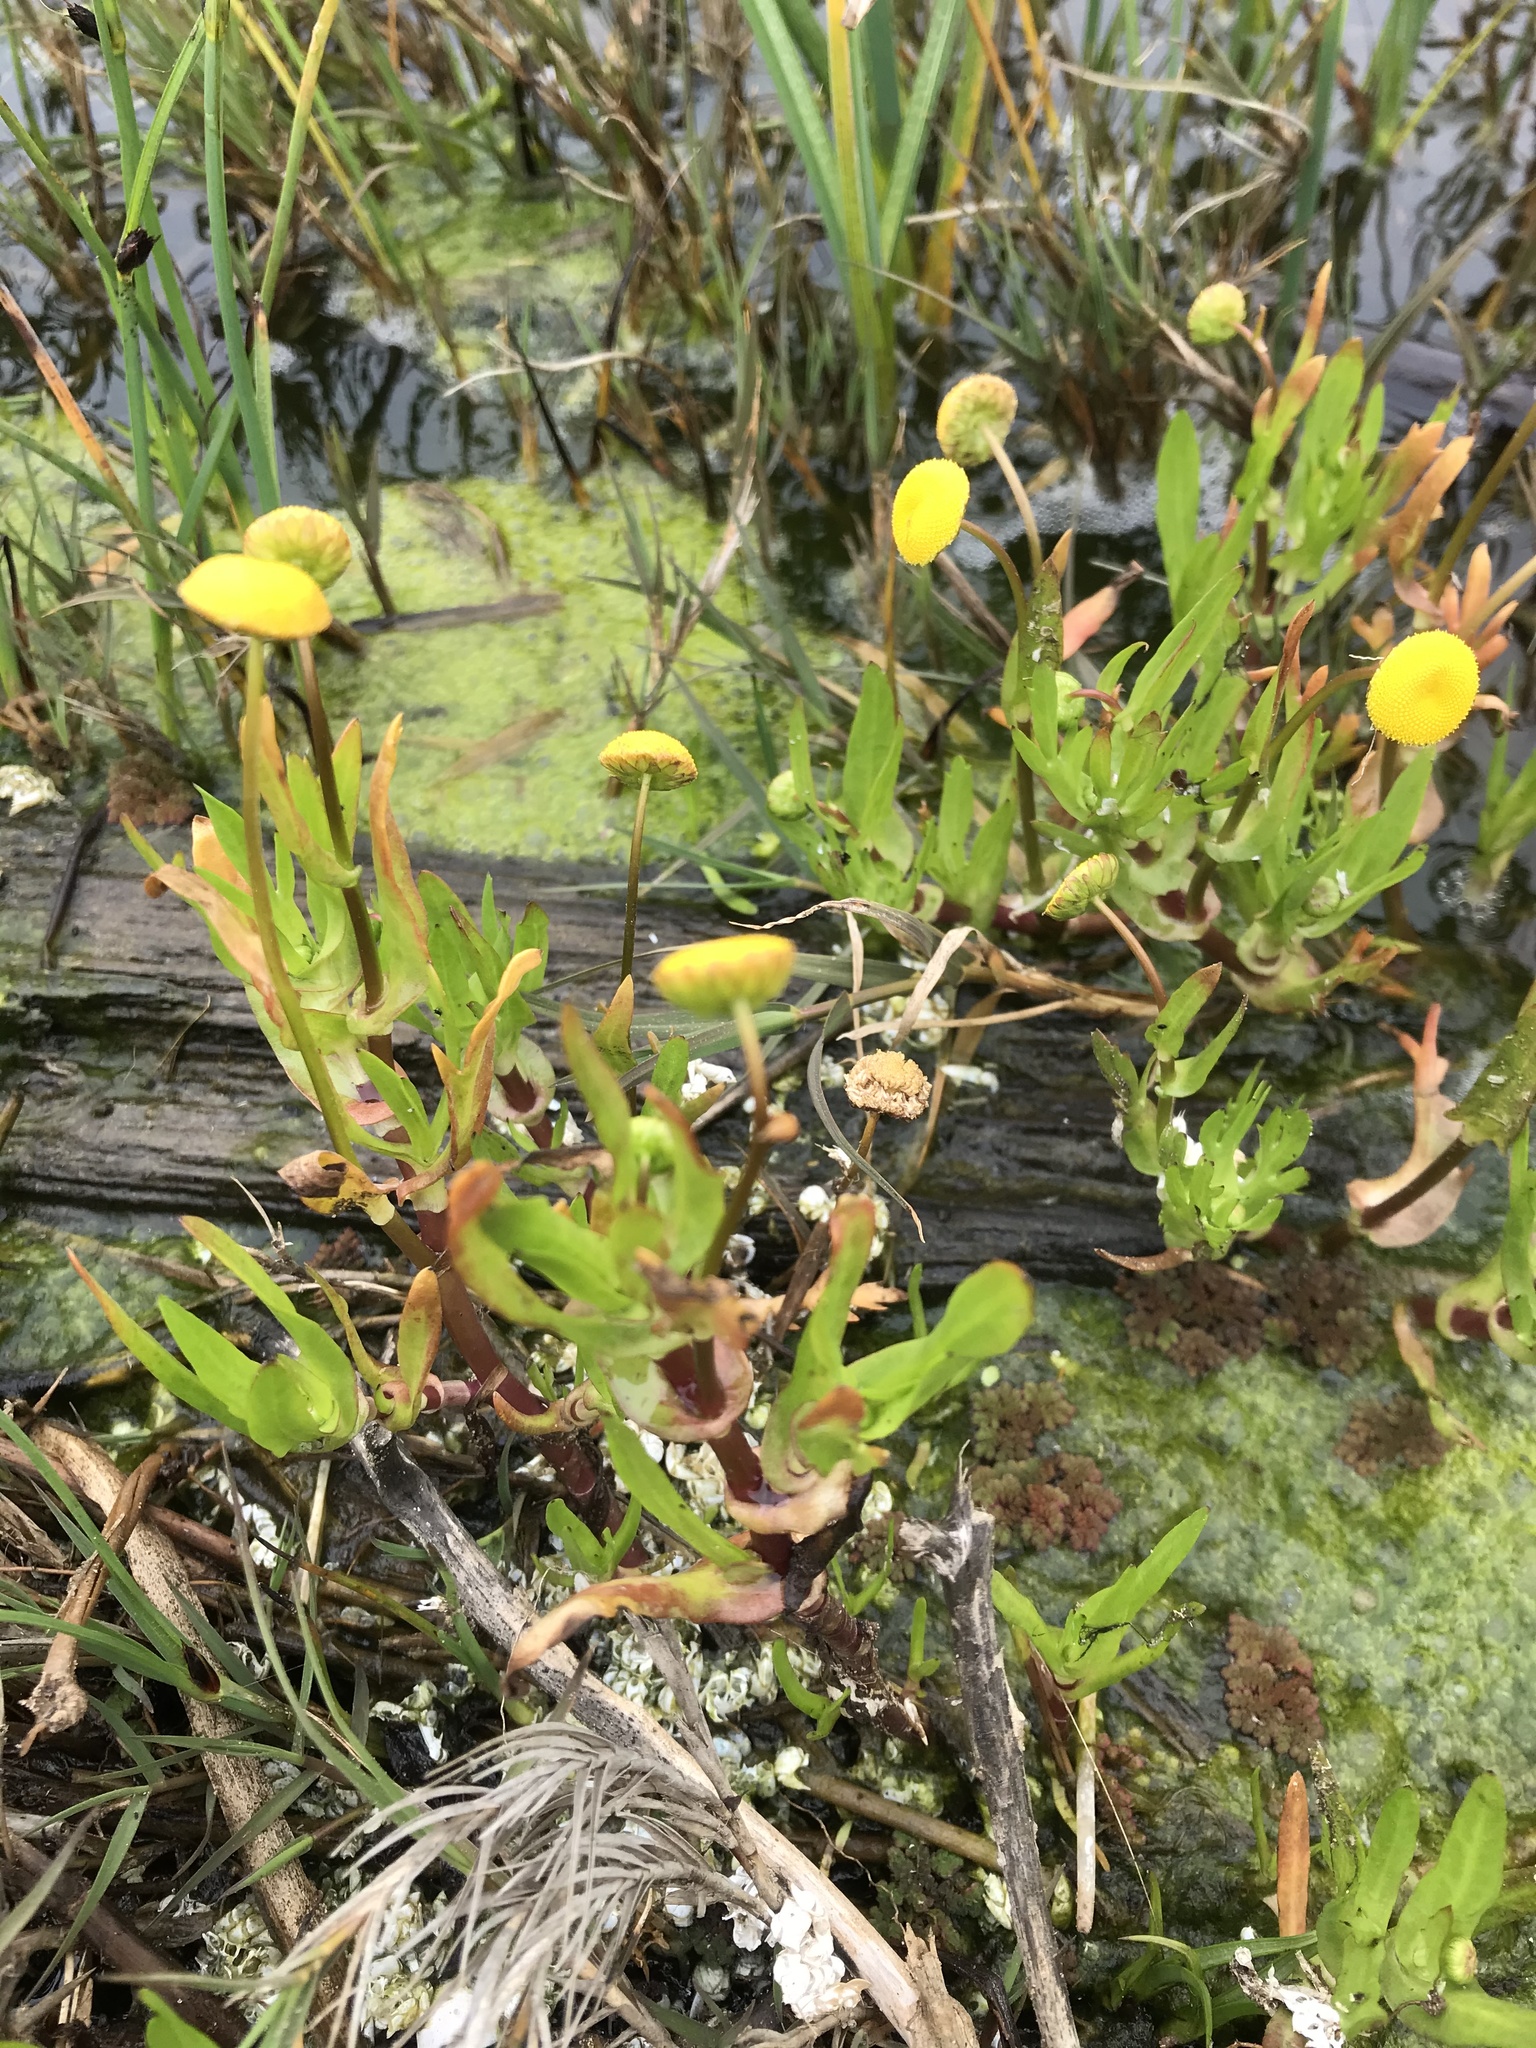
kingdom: Plantae
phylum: Tracheophyta
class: Magnoliopsida
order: Asterales
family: Asteraceae
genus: Cotula
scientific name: Cotula coronopifolia
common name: Buttonweed
